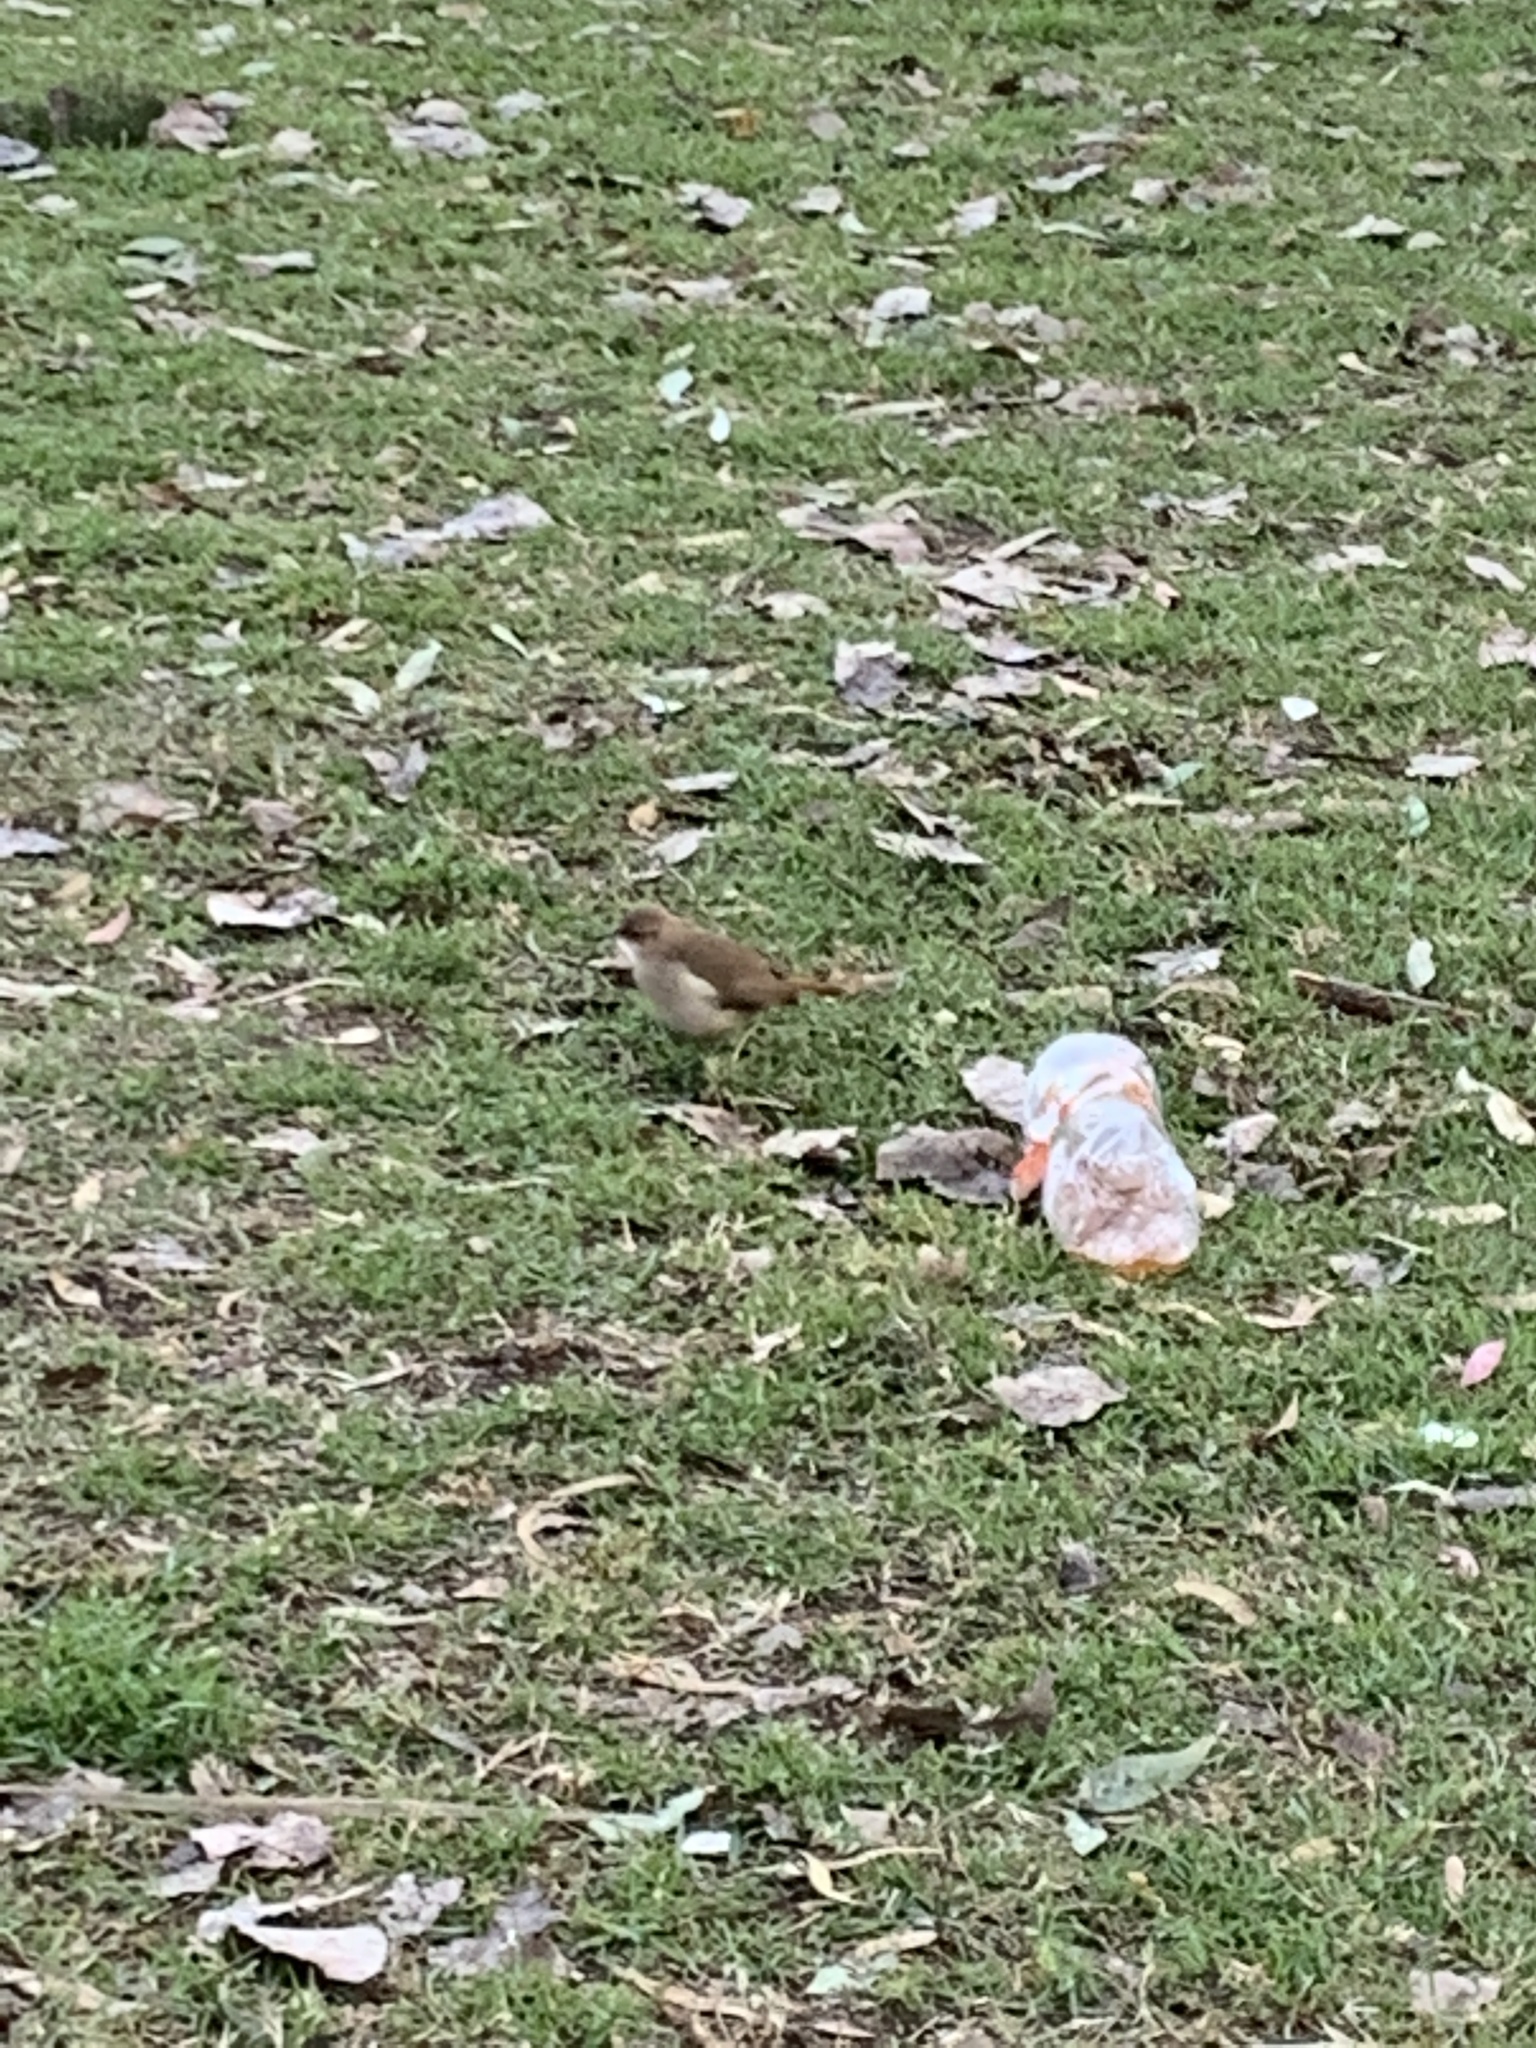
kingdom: Animalia
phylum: Chordata
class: Aves
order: Passeriformes
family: Furnariidae
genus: Furnarius
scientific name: Furnarius rufus
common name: Rufous hornero
